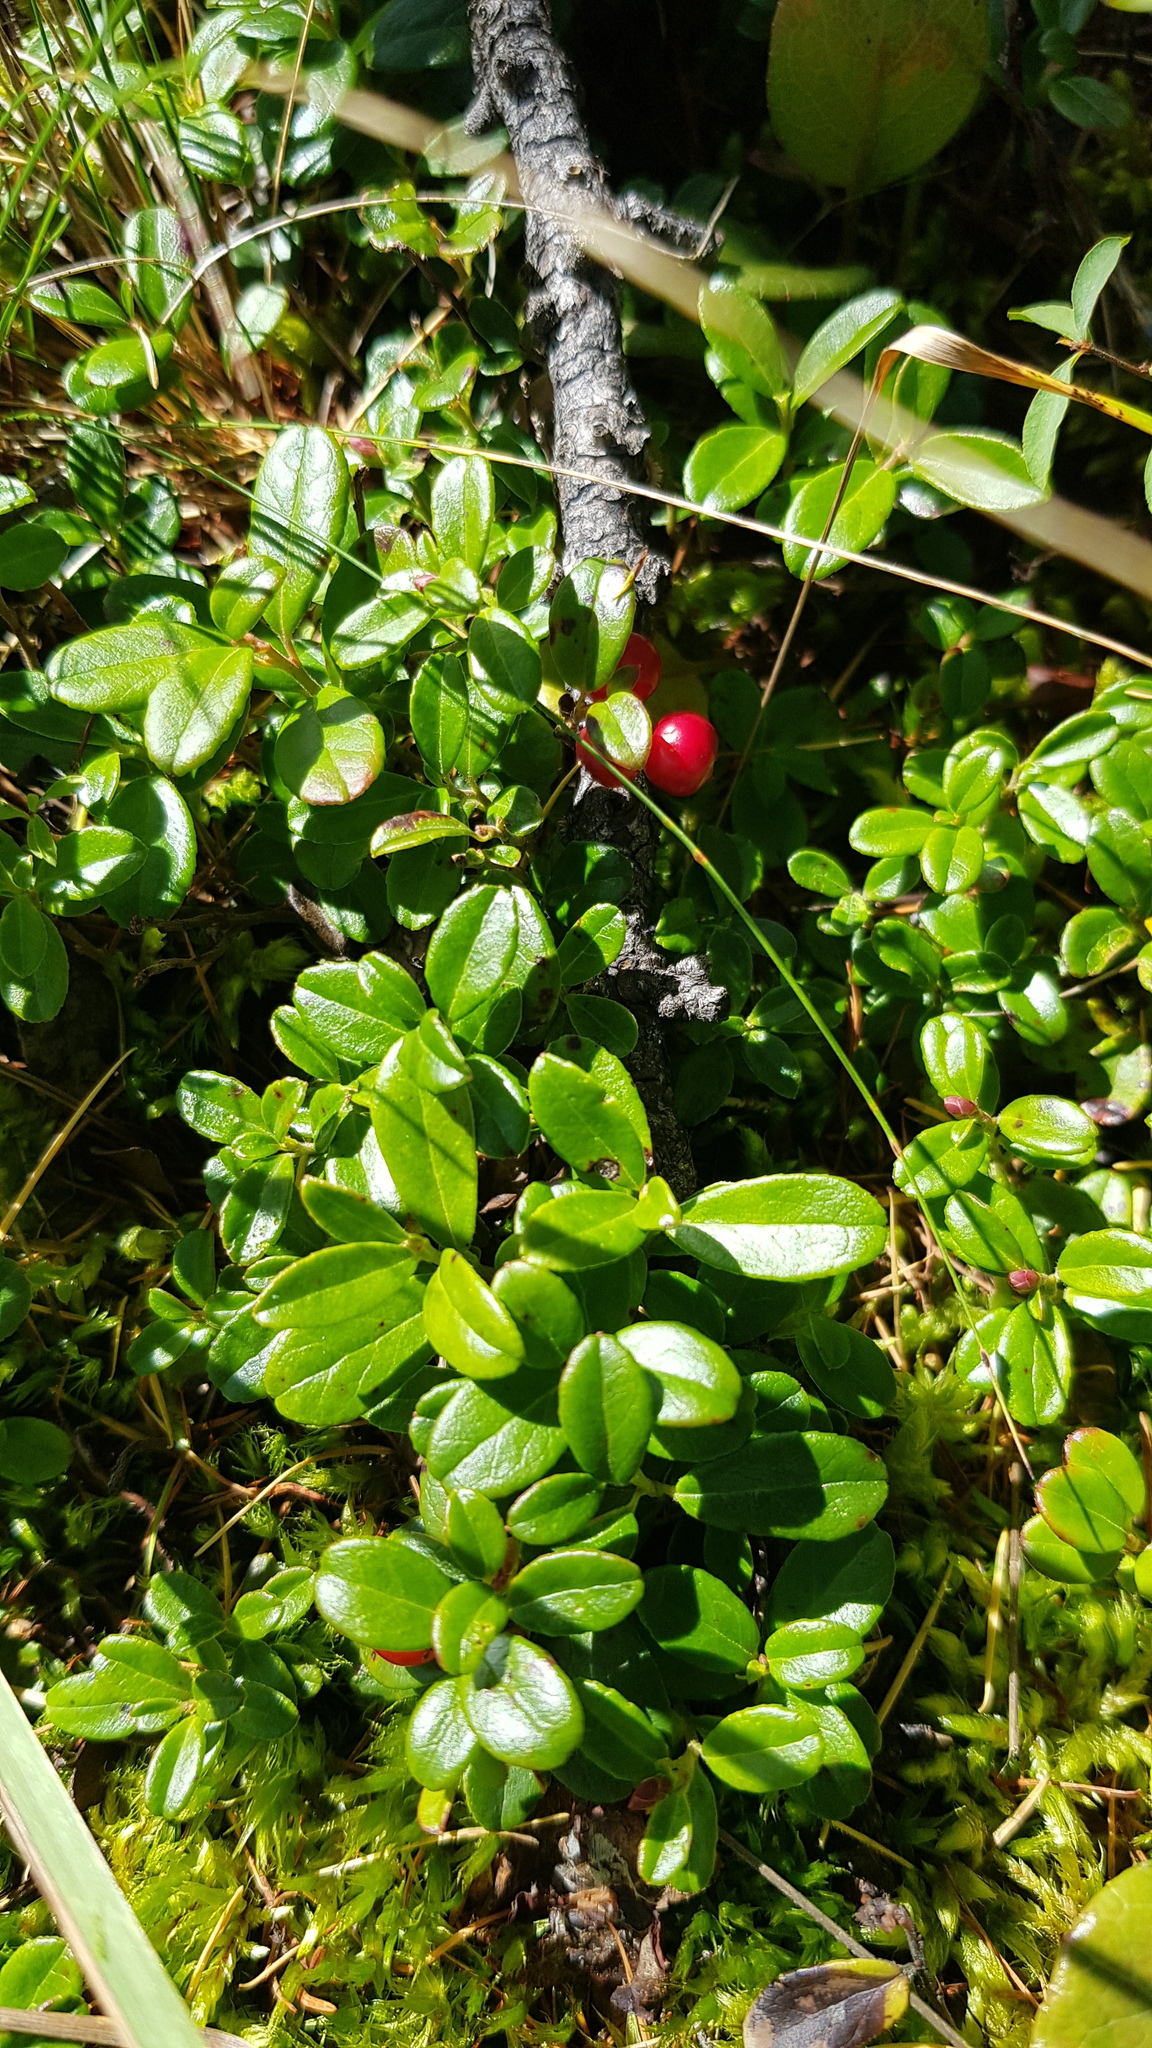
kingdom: Plantae
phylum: Tracheophyta
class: Magnoliopsida
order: Ericales
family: Ericaceae
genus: Vaccinium
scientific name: Vaccinium vitis-idaea
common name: Cowberry
